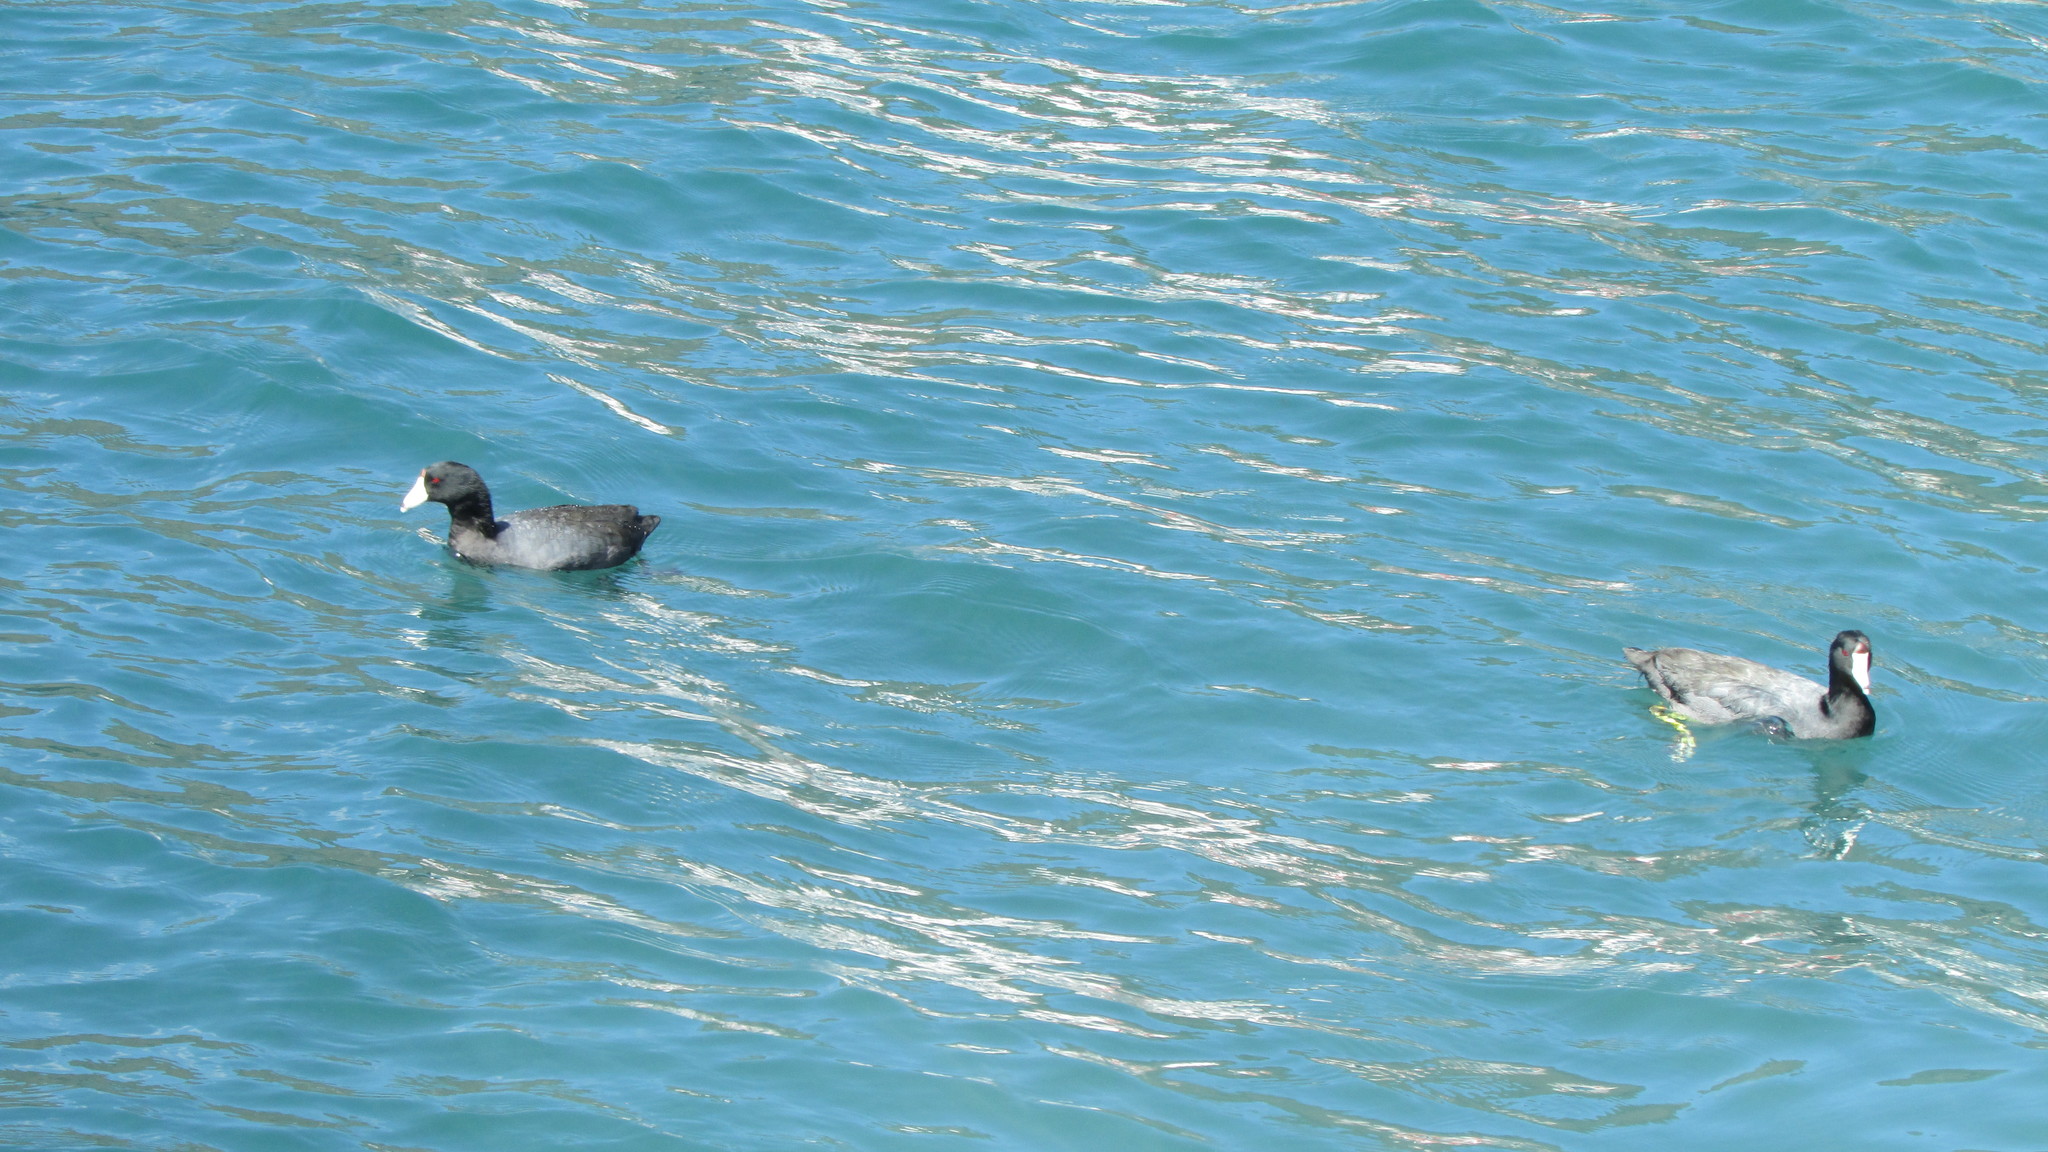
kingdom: Animalia
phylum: Chordata
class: Aves
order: Gruiformes
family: Rallidae
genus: Fulica
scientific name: Fulica americana
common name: American coot
